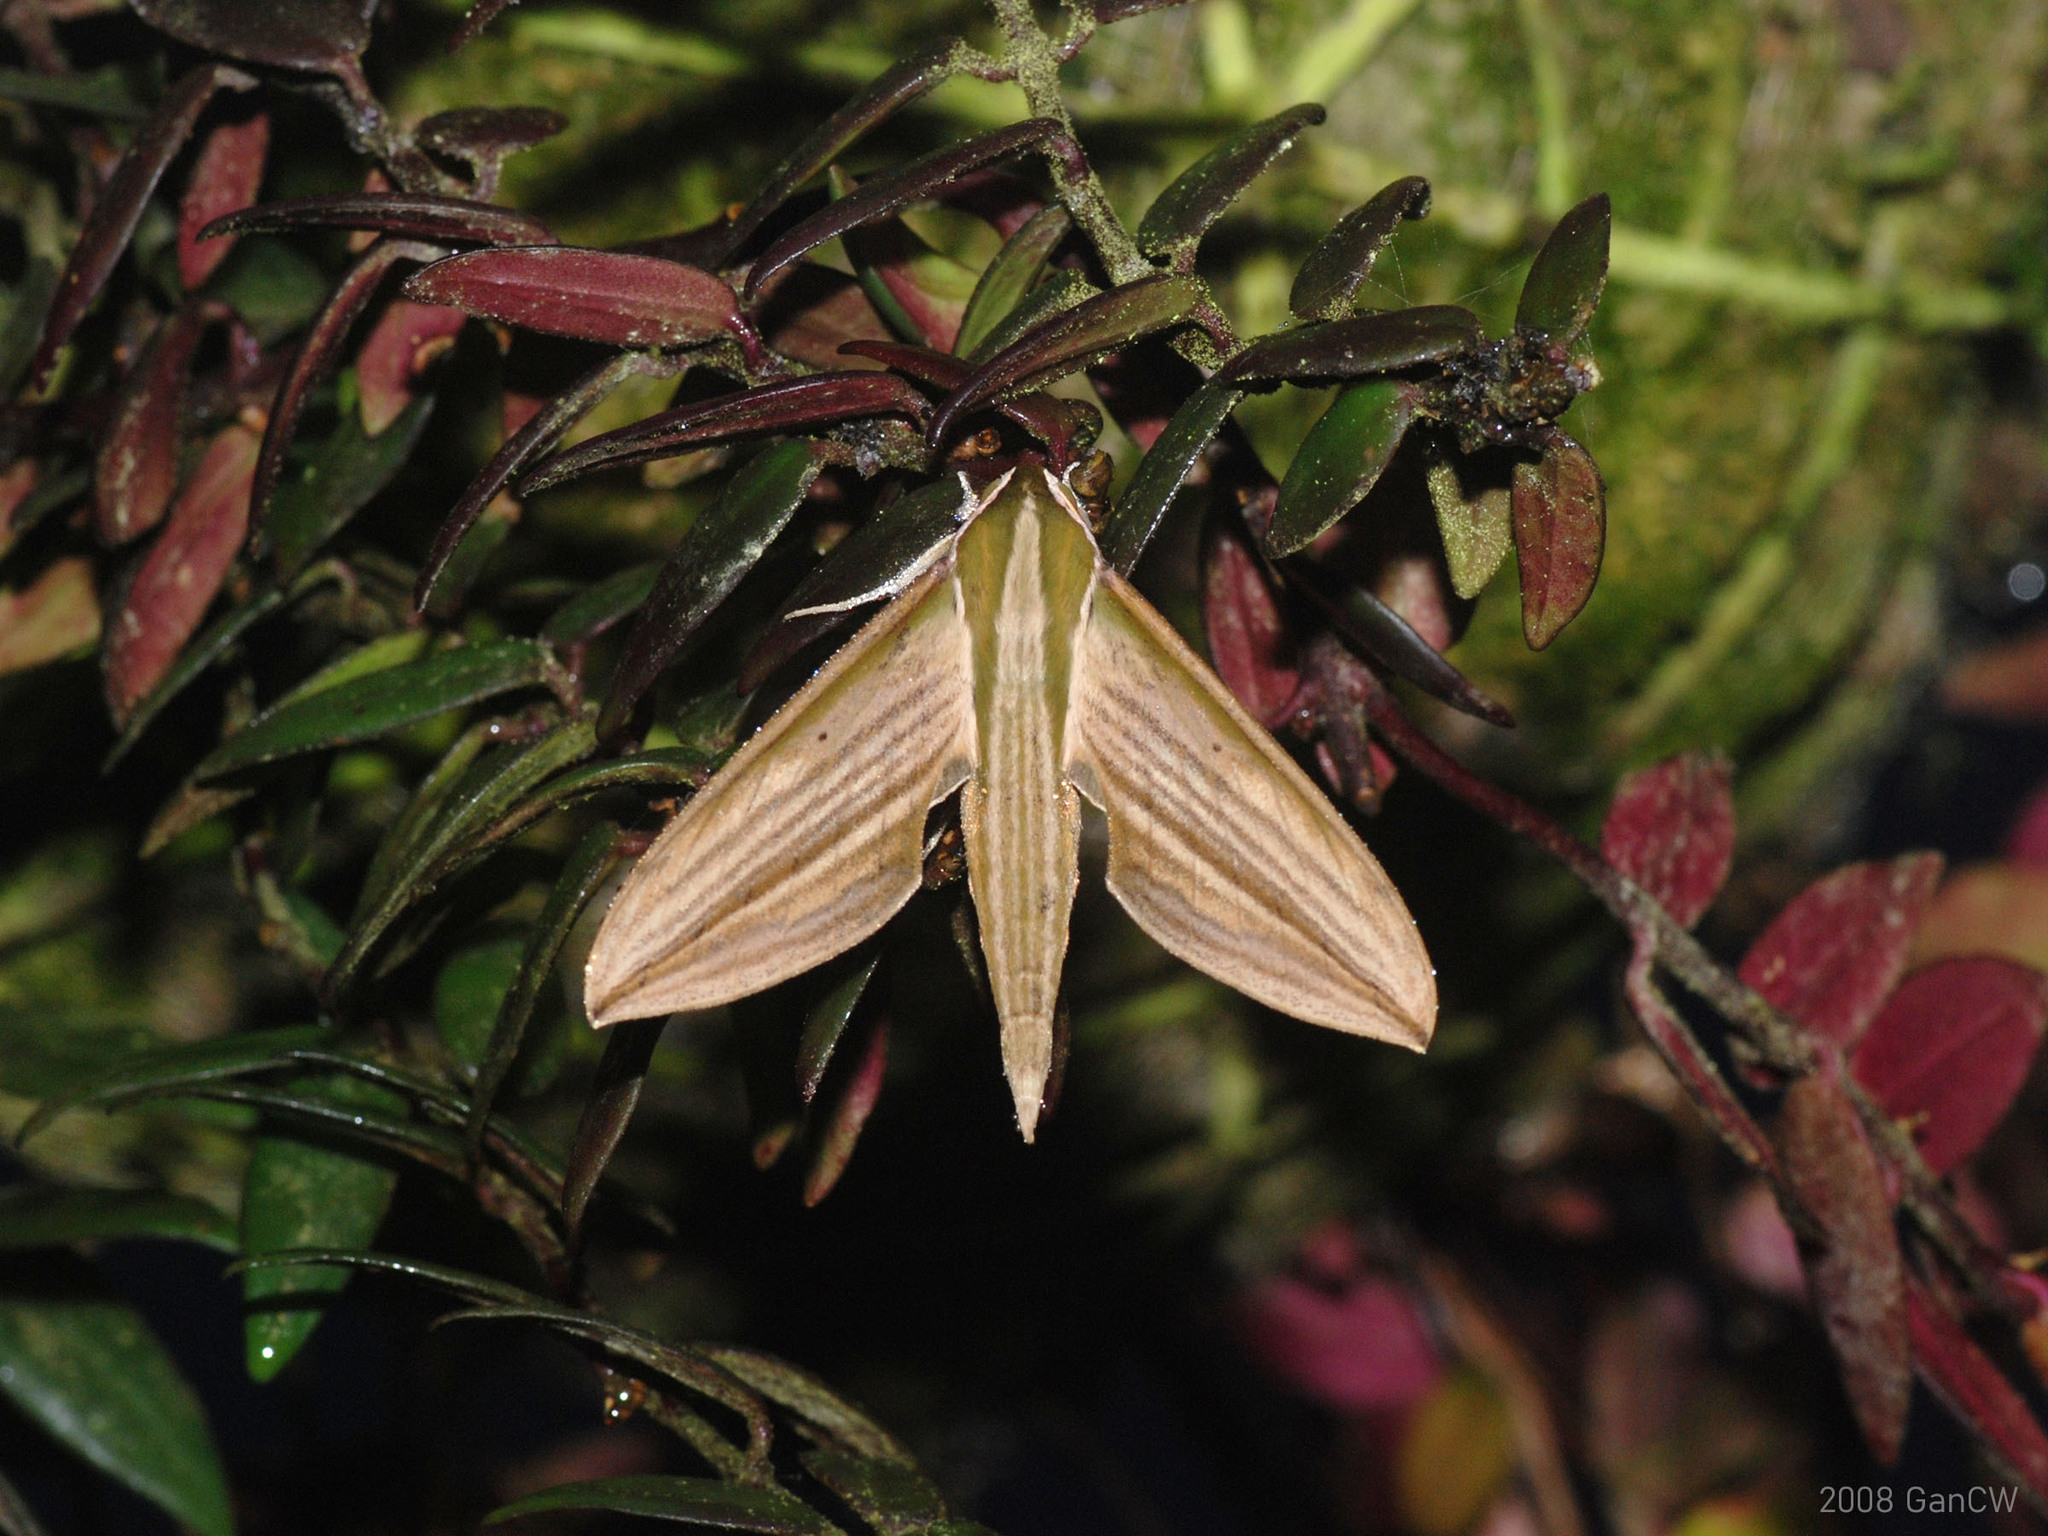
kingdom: Animalia
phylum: Arthropoda
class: Insecta
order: Lepidoptera
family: Sphingidae
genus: Cechetra
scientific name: Cechetra lineosa
